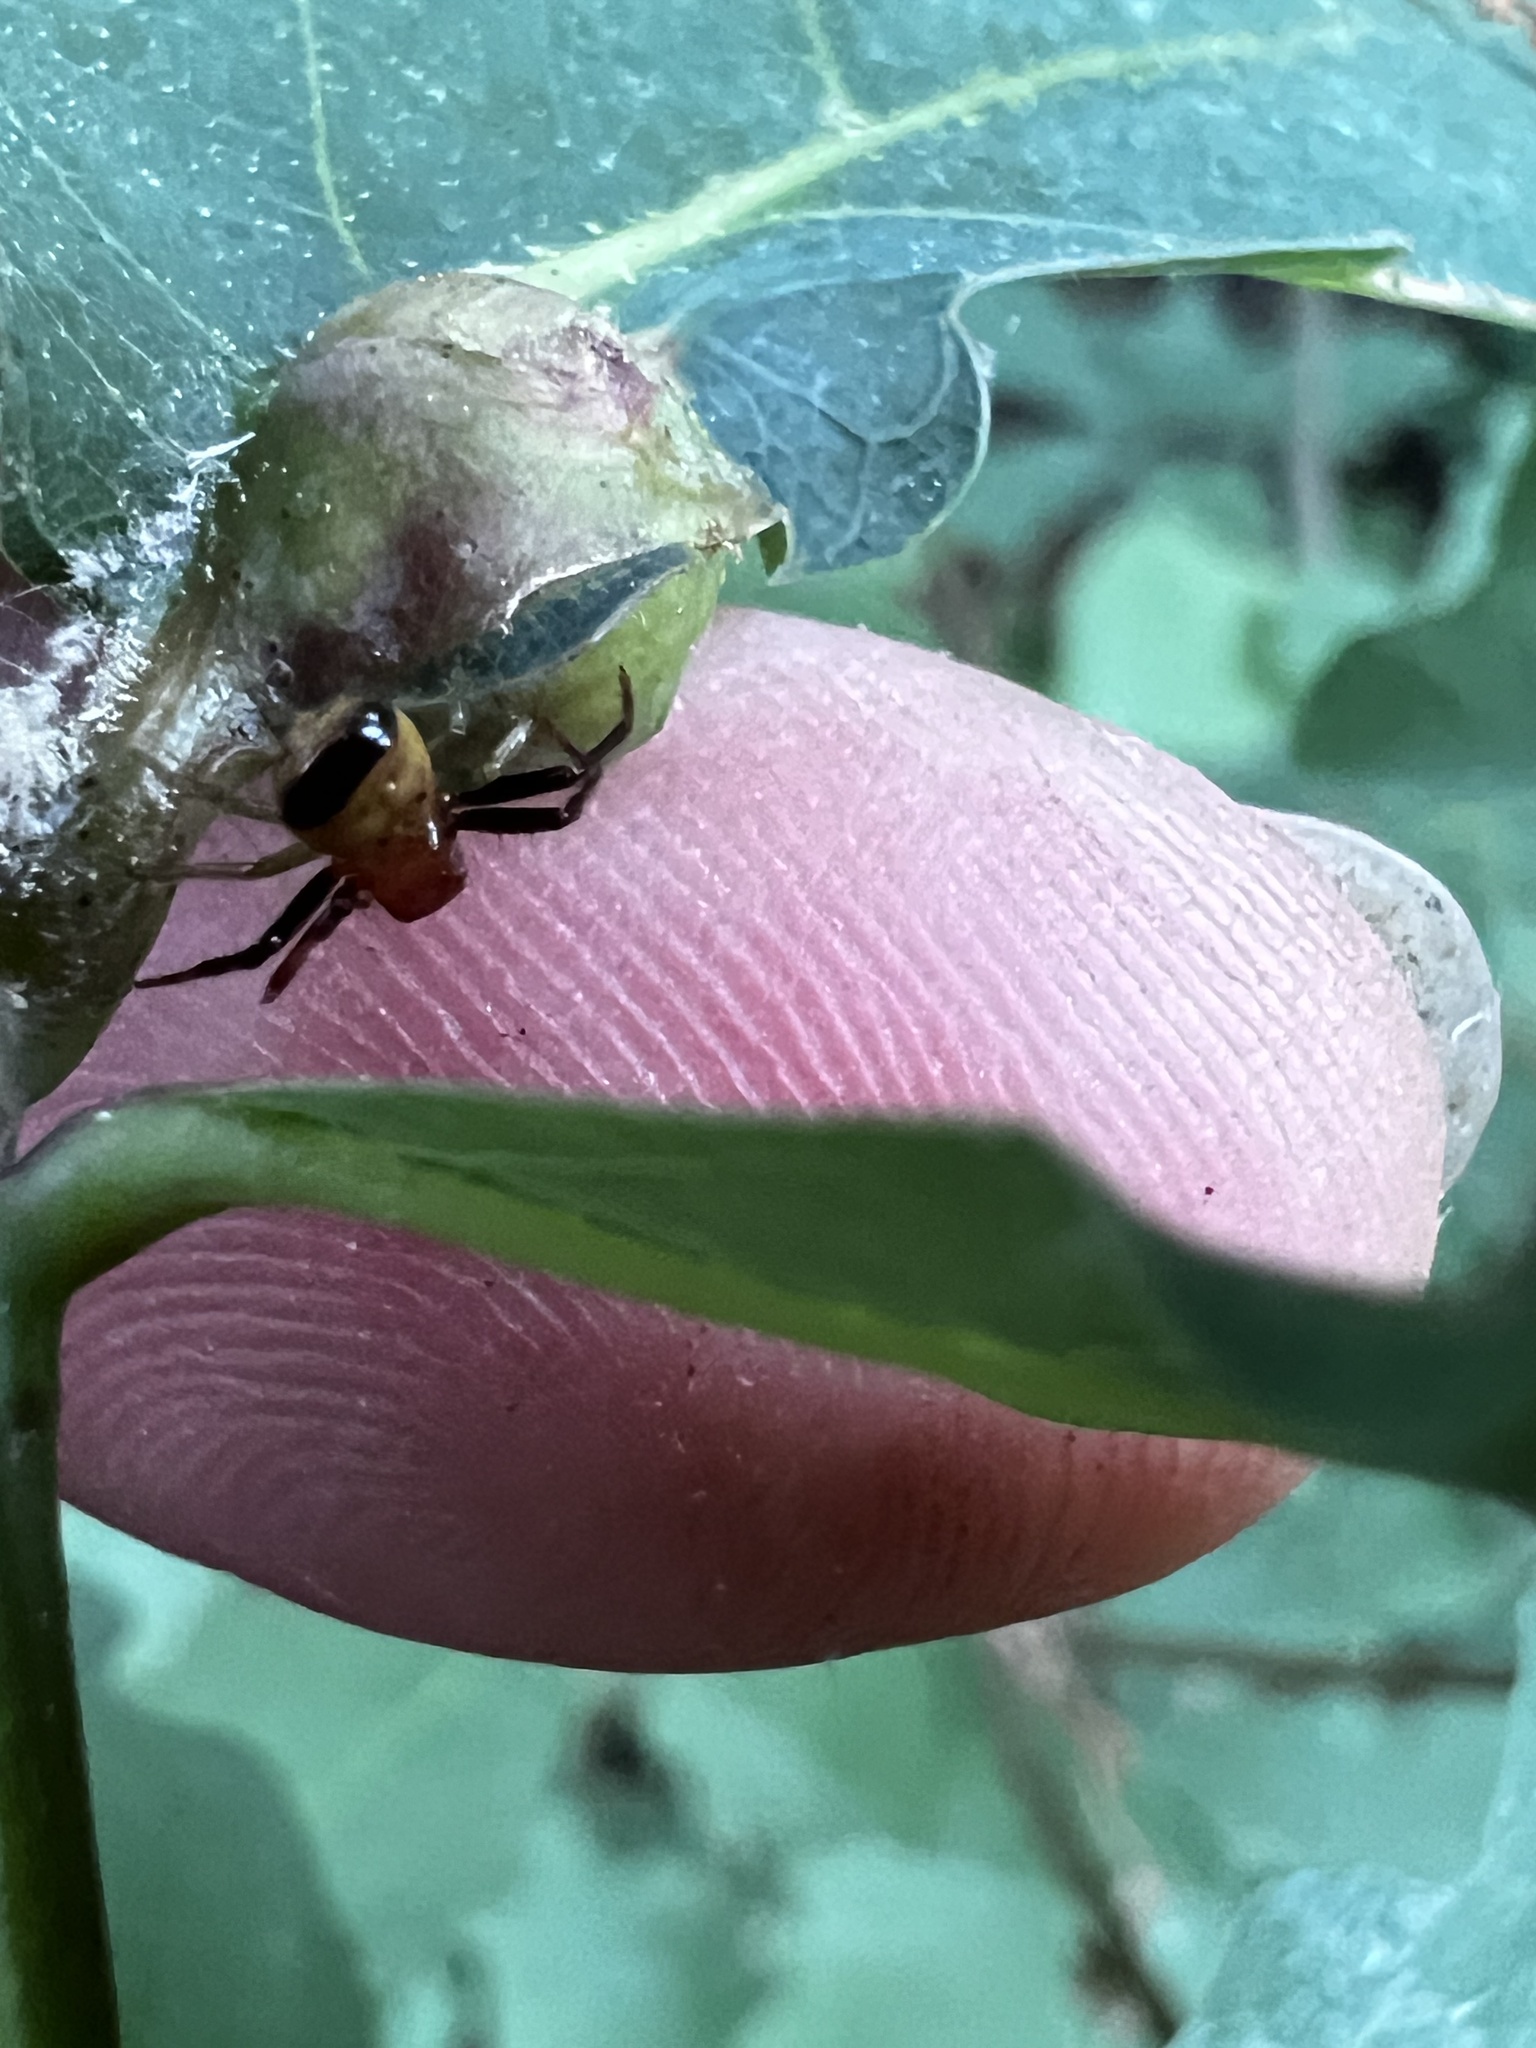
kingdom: Animalia
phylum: Arthropoda
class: Arachnida
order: Araneae
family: Thomisidae
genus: Synema
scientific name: Synema parvulum
